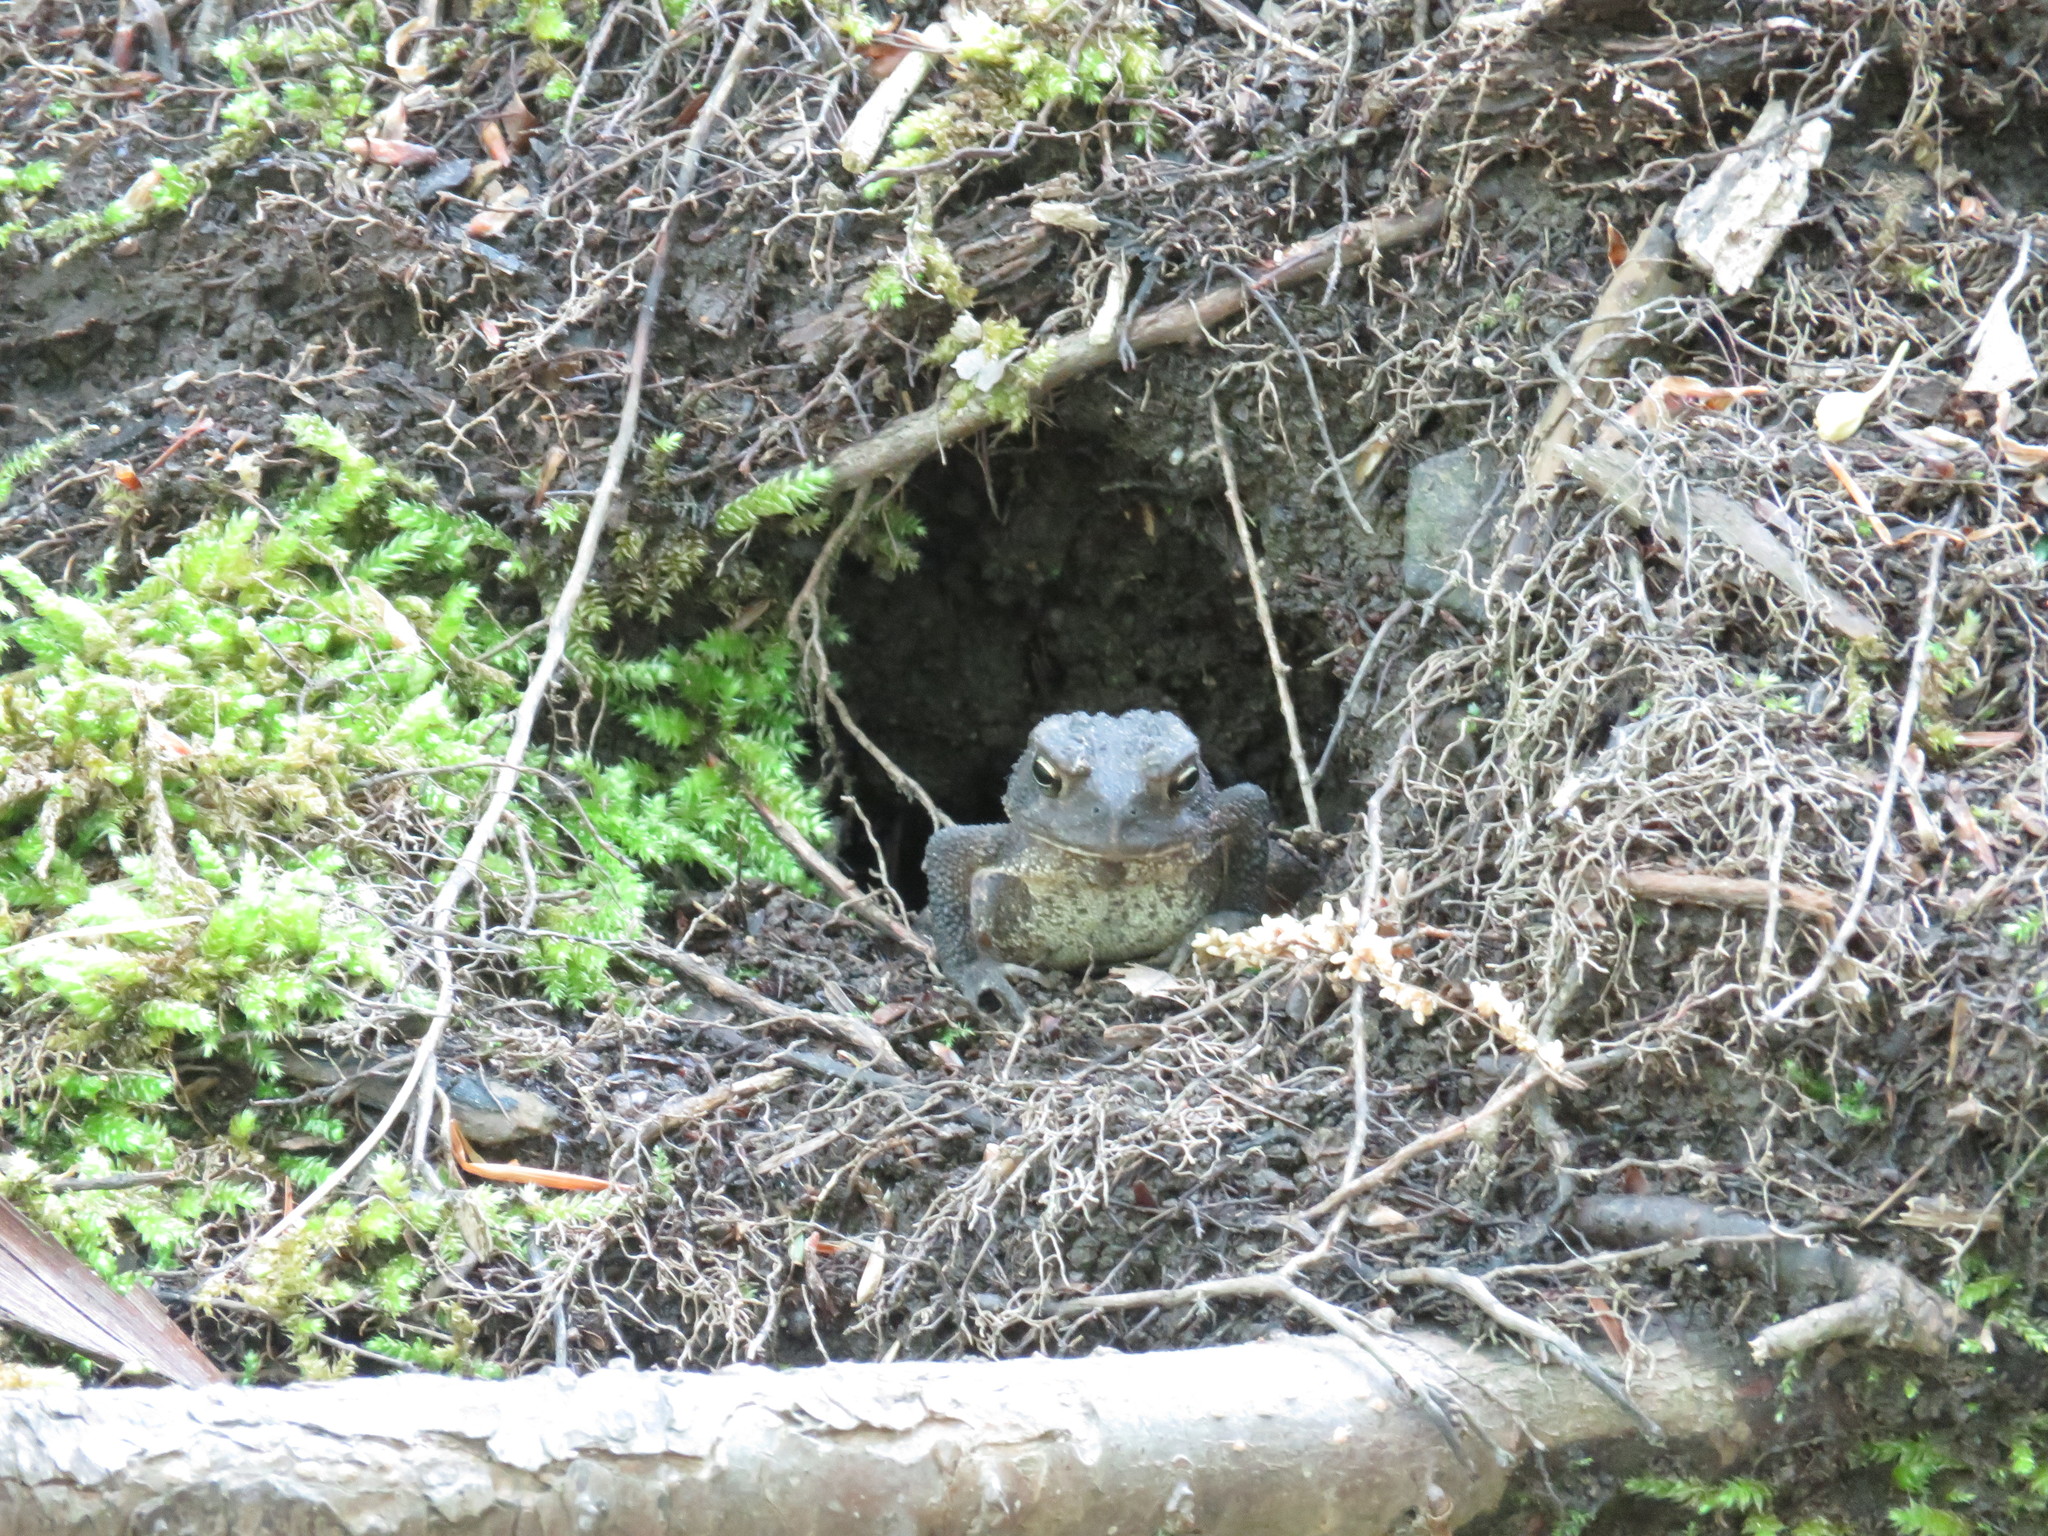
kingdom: Animalia
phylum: Chordata
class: Amphibia
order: Anura
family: Bufonidae
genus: Anaxyrus
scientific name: Anaxyrus americanus
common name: American toad
